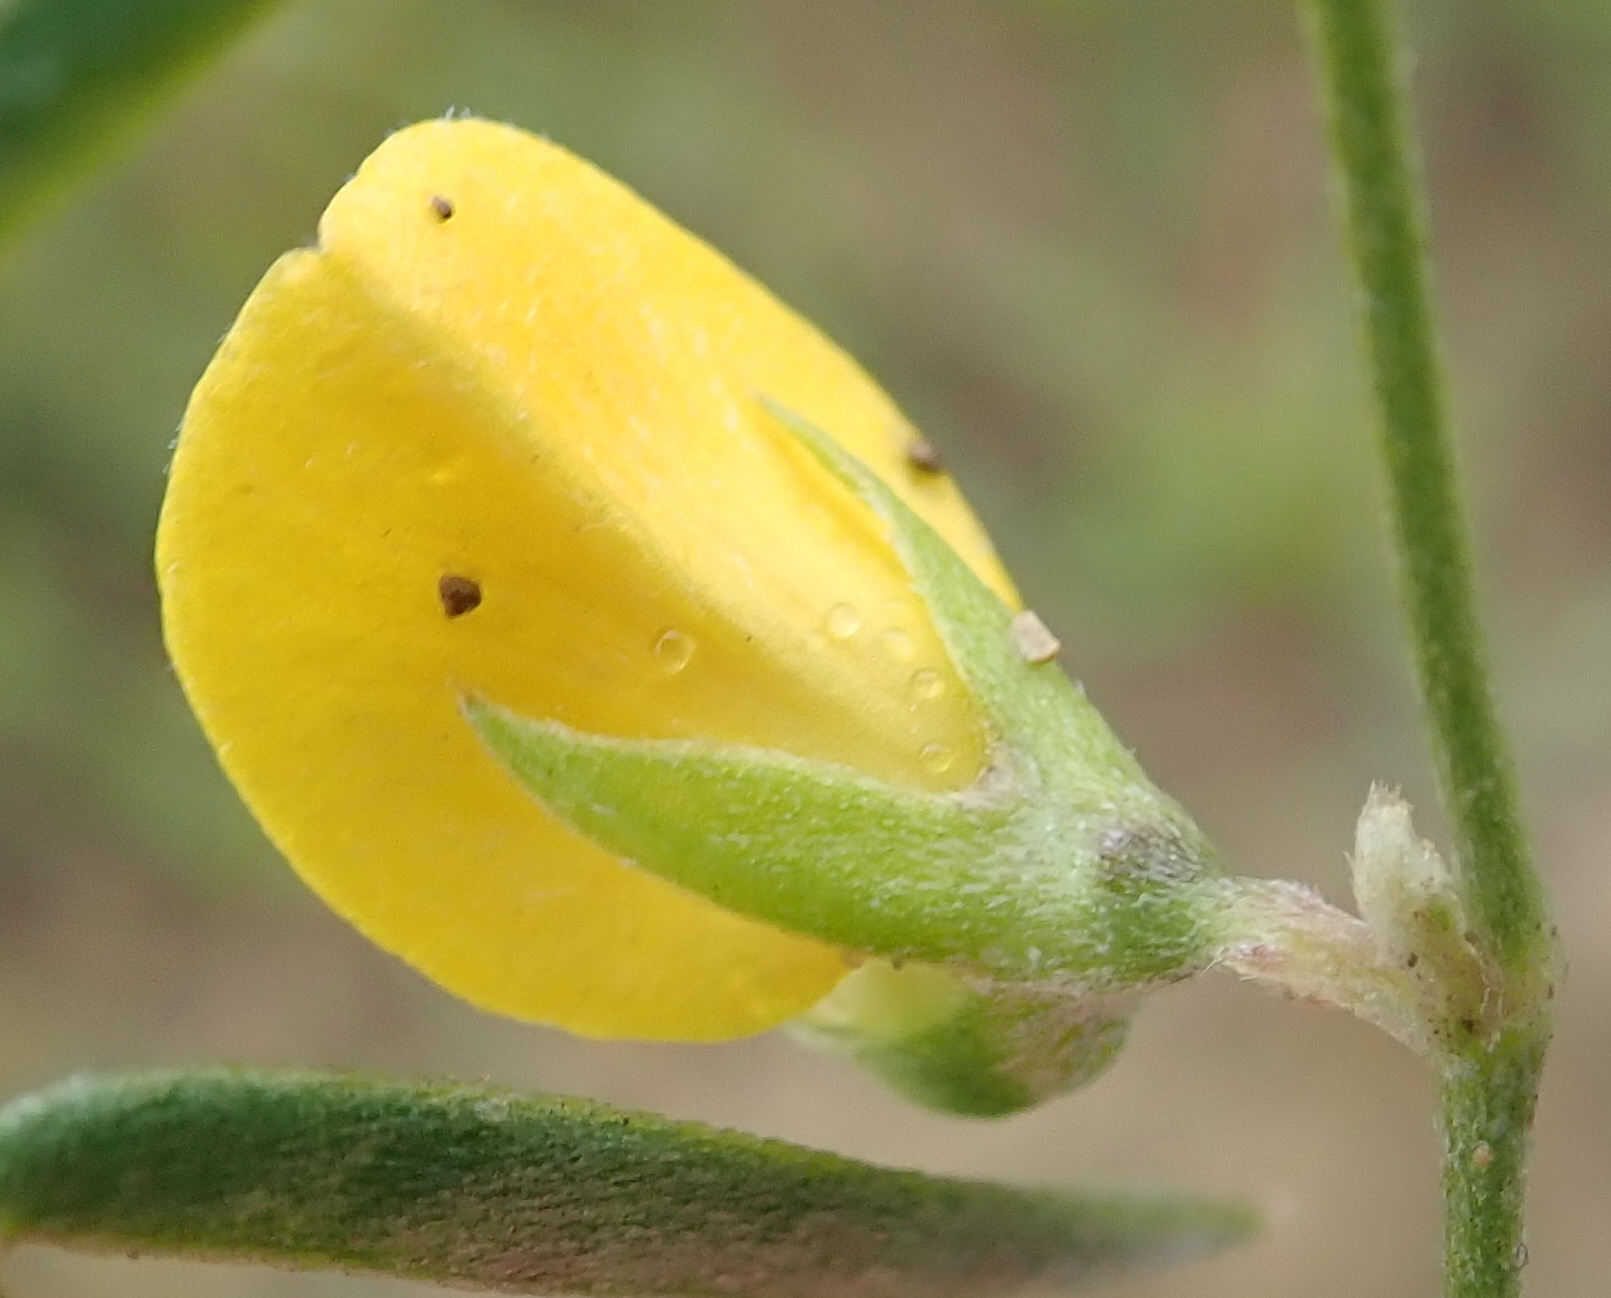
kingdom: Plantae
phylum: Tracheophyta
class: Magnoliopsida
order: Fabales
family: Fabaceae
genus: Argyrolobium
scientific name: Argyrolobium rarum
